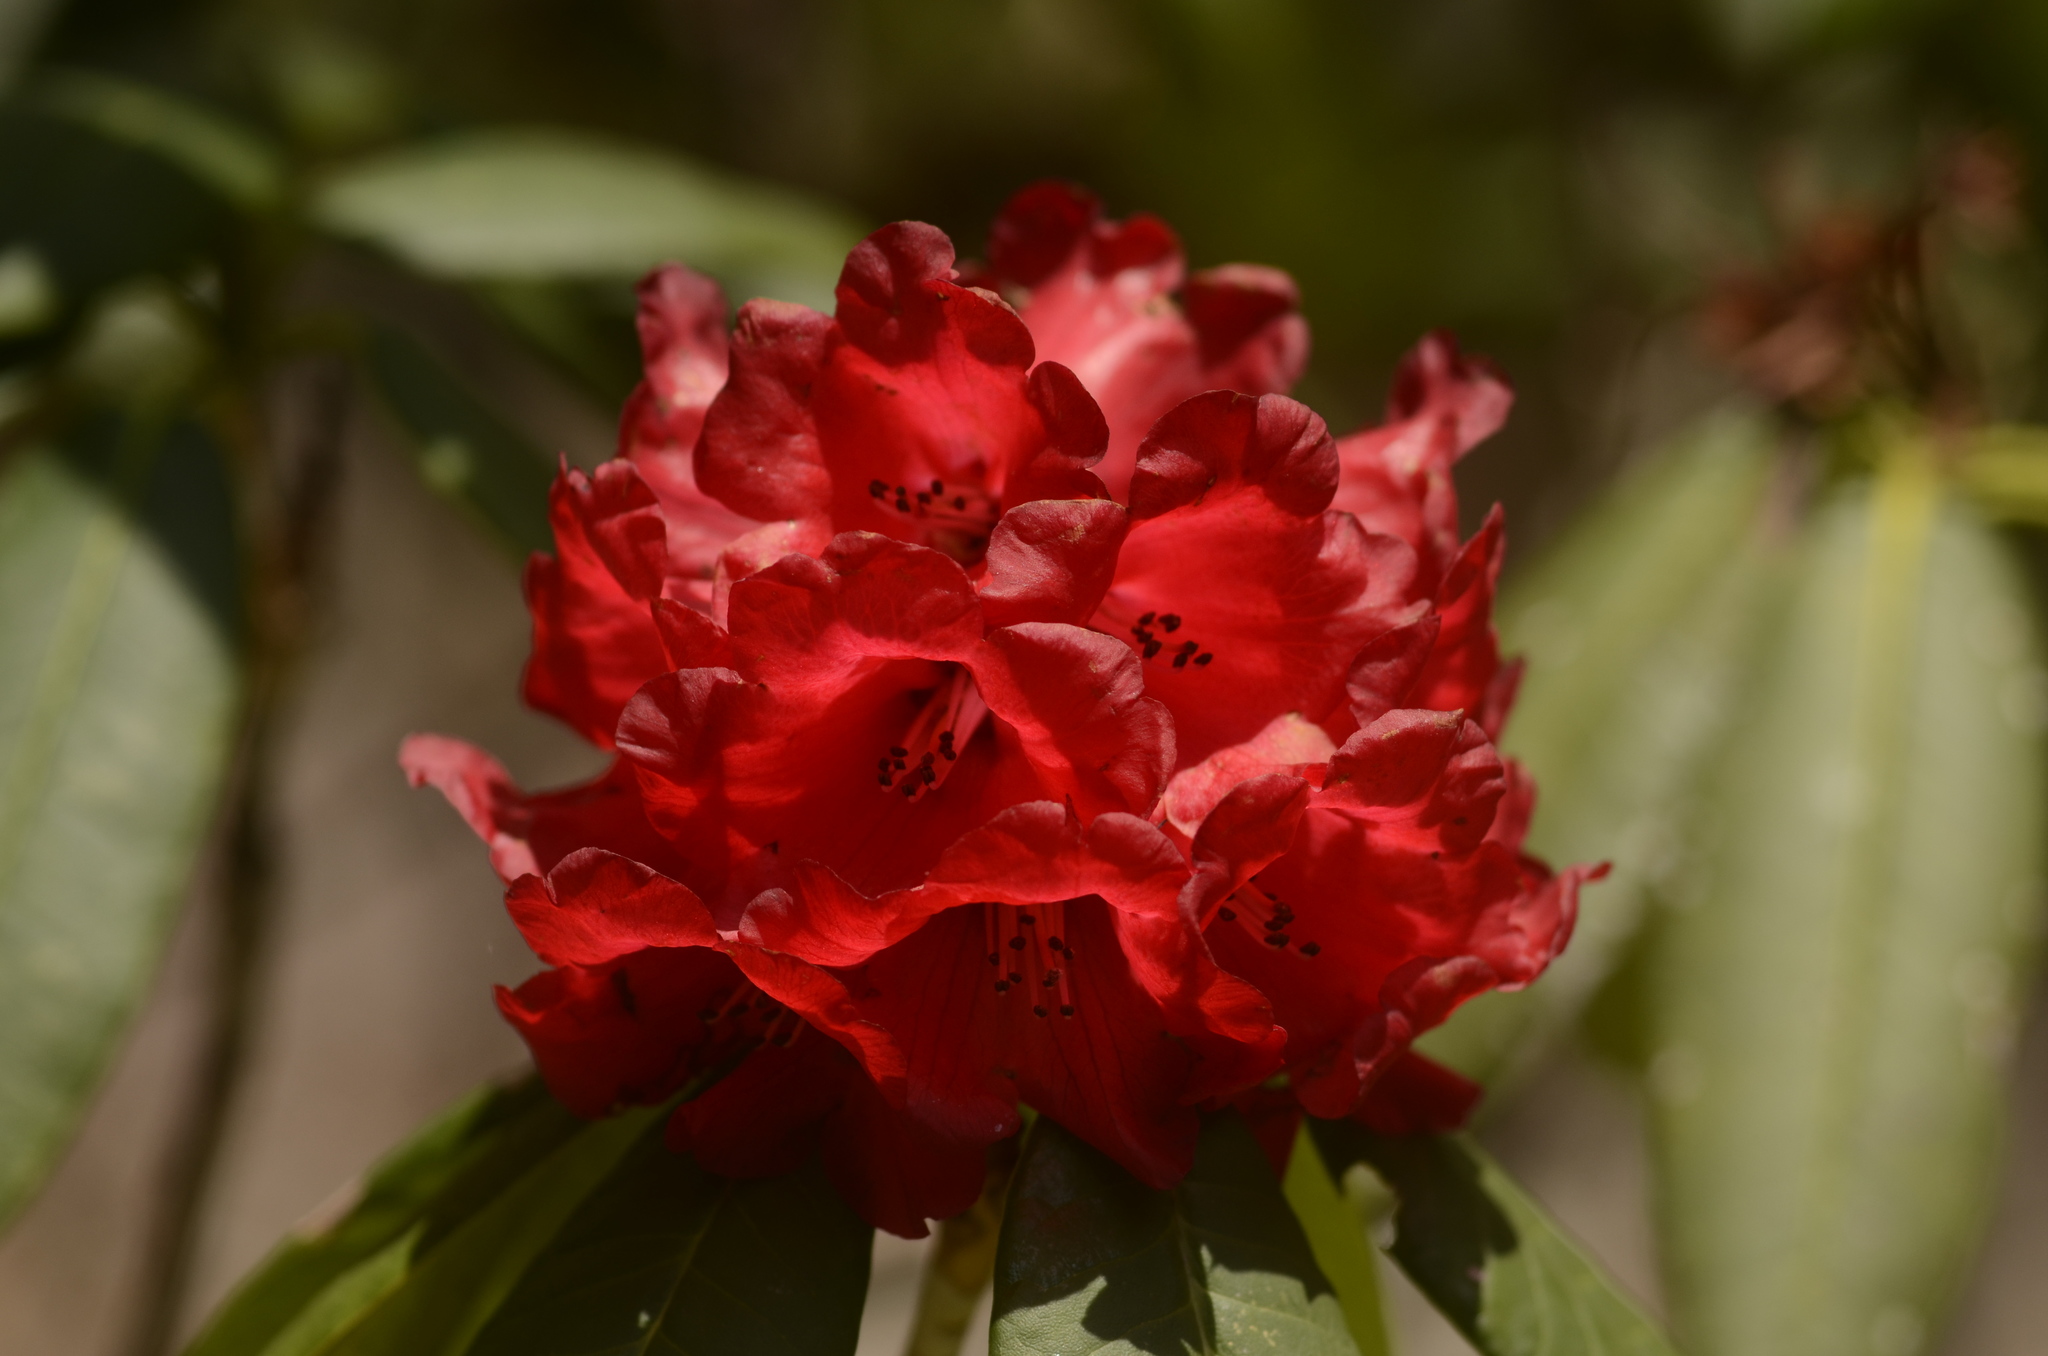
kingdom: Plantae
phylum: Tracheophyta
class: Magnoliopsida
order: Ericales
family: Ericaceae
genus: Rhododendron
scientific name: Rhododendron barbatum
